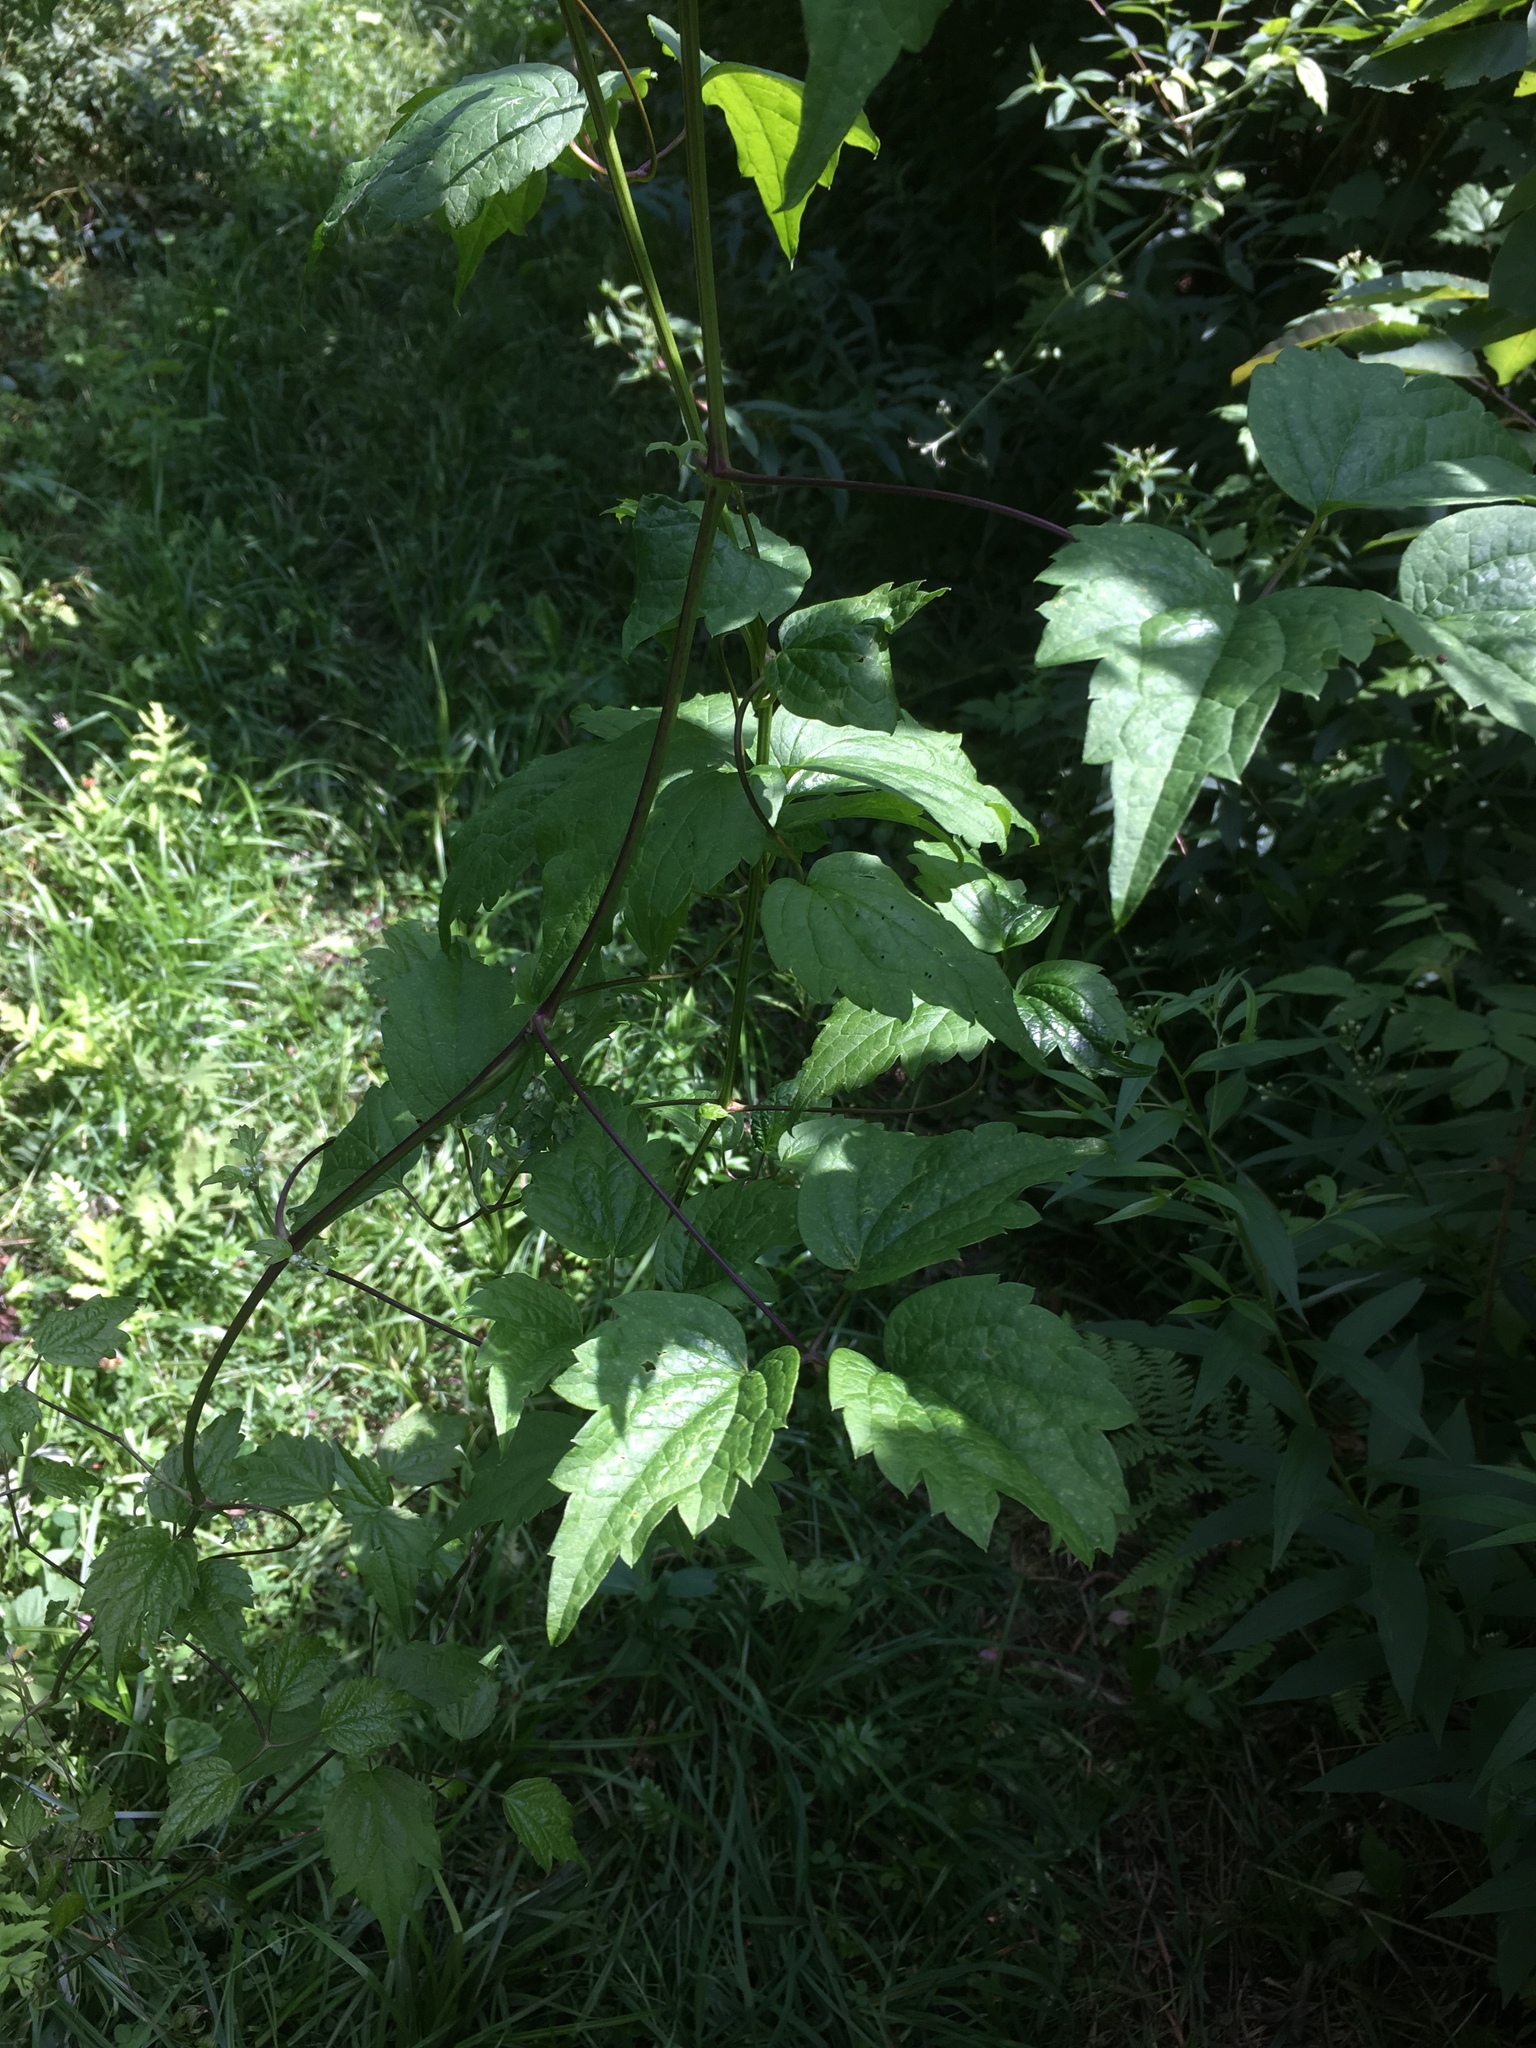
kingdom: Plantae
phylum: Tracheophyta
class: Magnoliopsida
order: Ranunculales
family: Ranunculaceae
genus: Clematis
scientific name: Clematis virginiana
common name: Virgin's-bower
